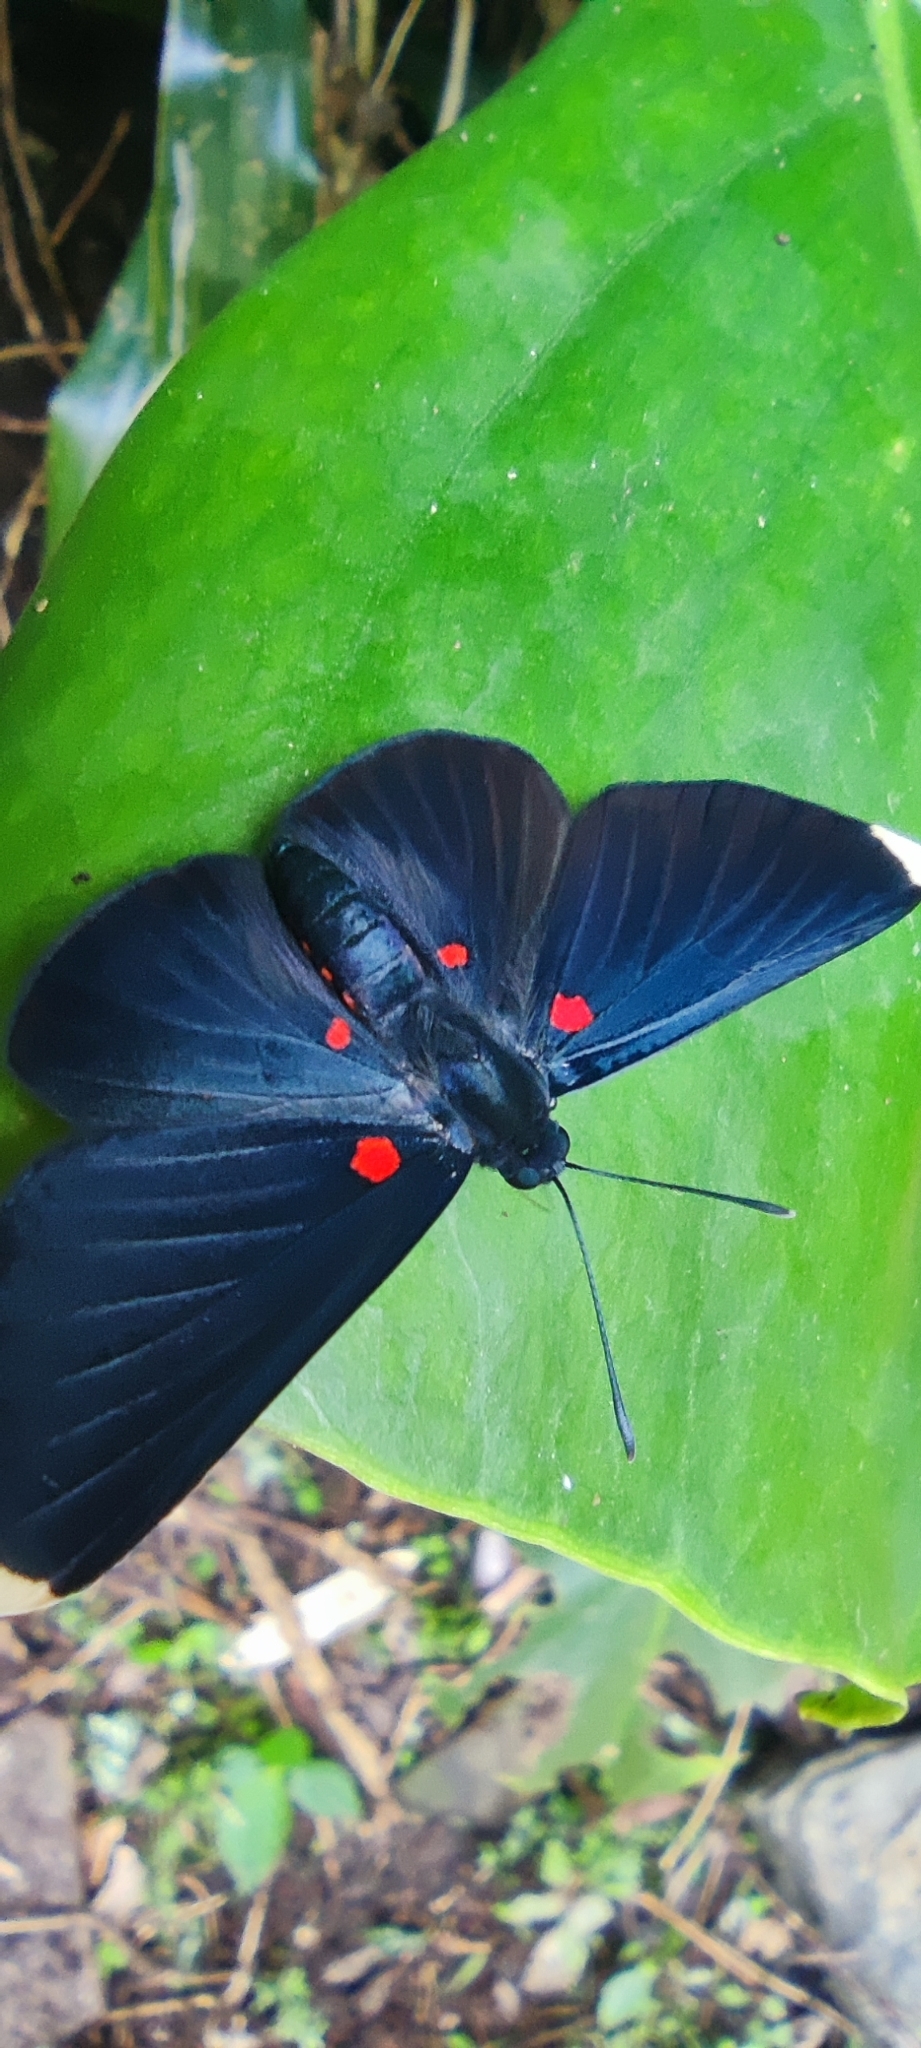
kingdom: Animalia
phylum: Arthropoda
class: Insecta
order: Lepidoptera
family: Lycaenidae
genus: Melanis
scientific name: Melanis
